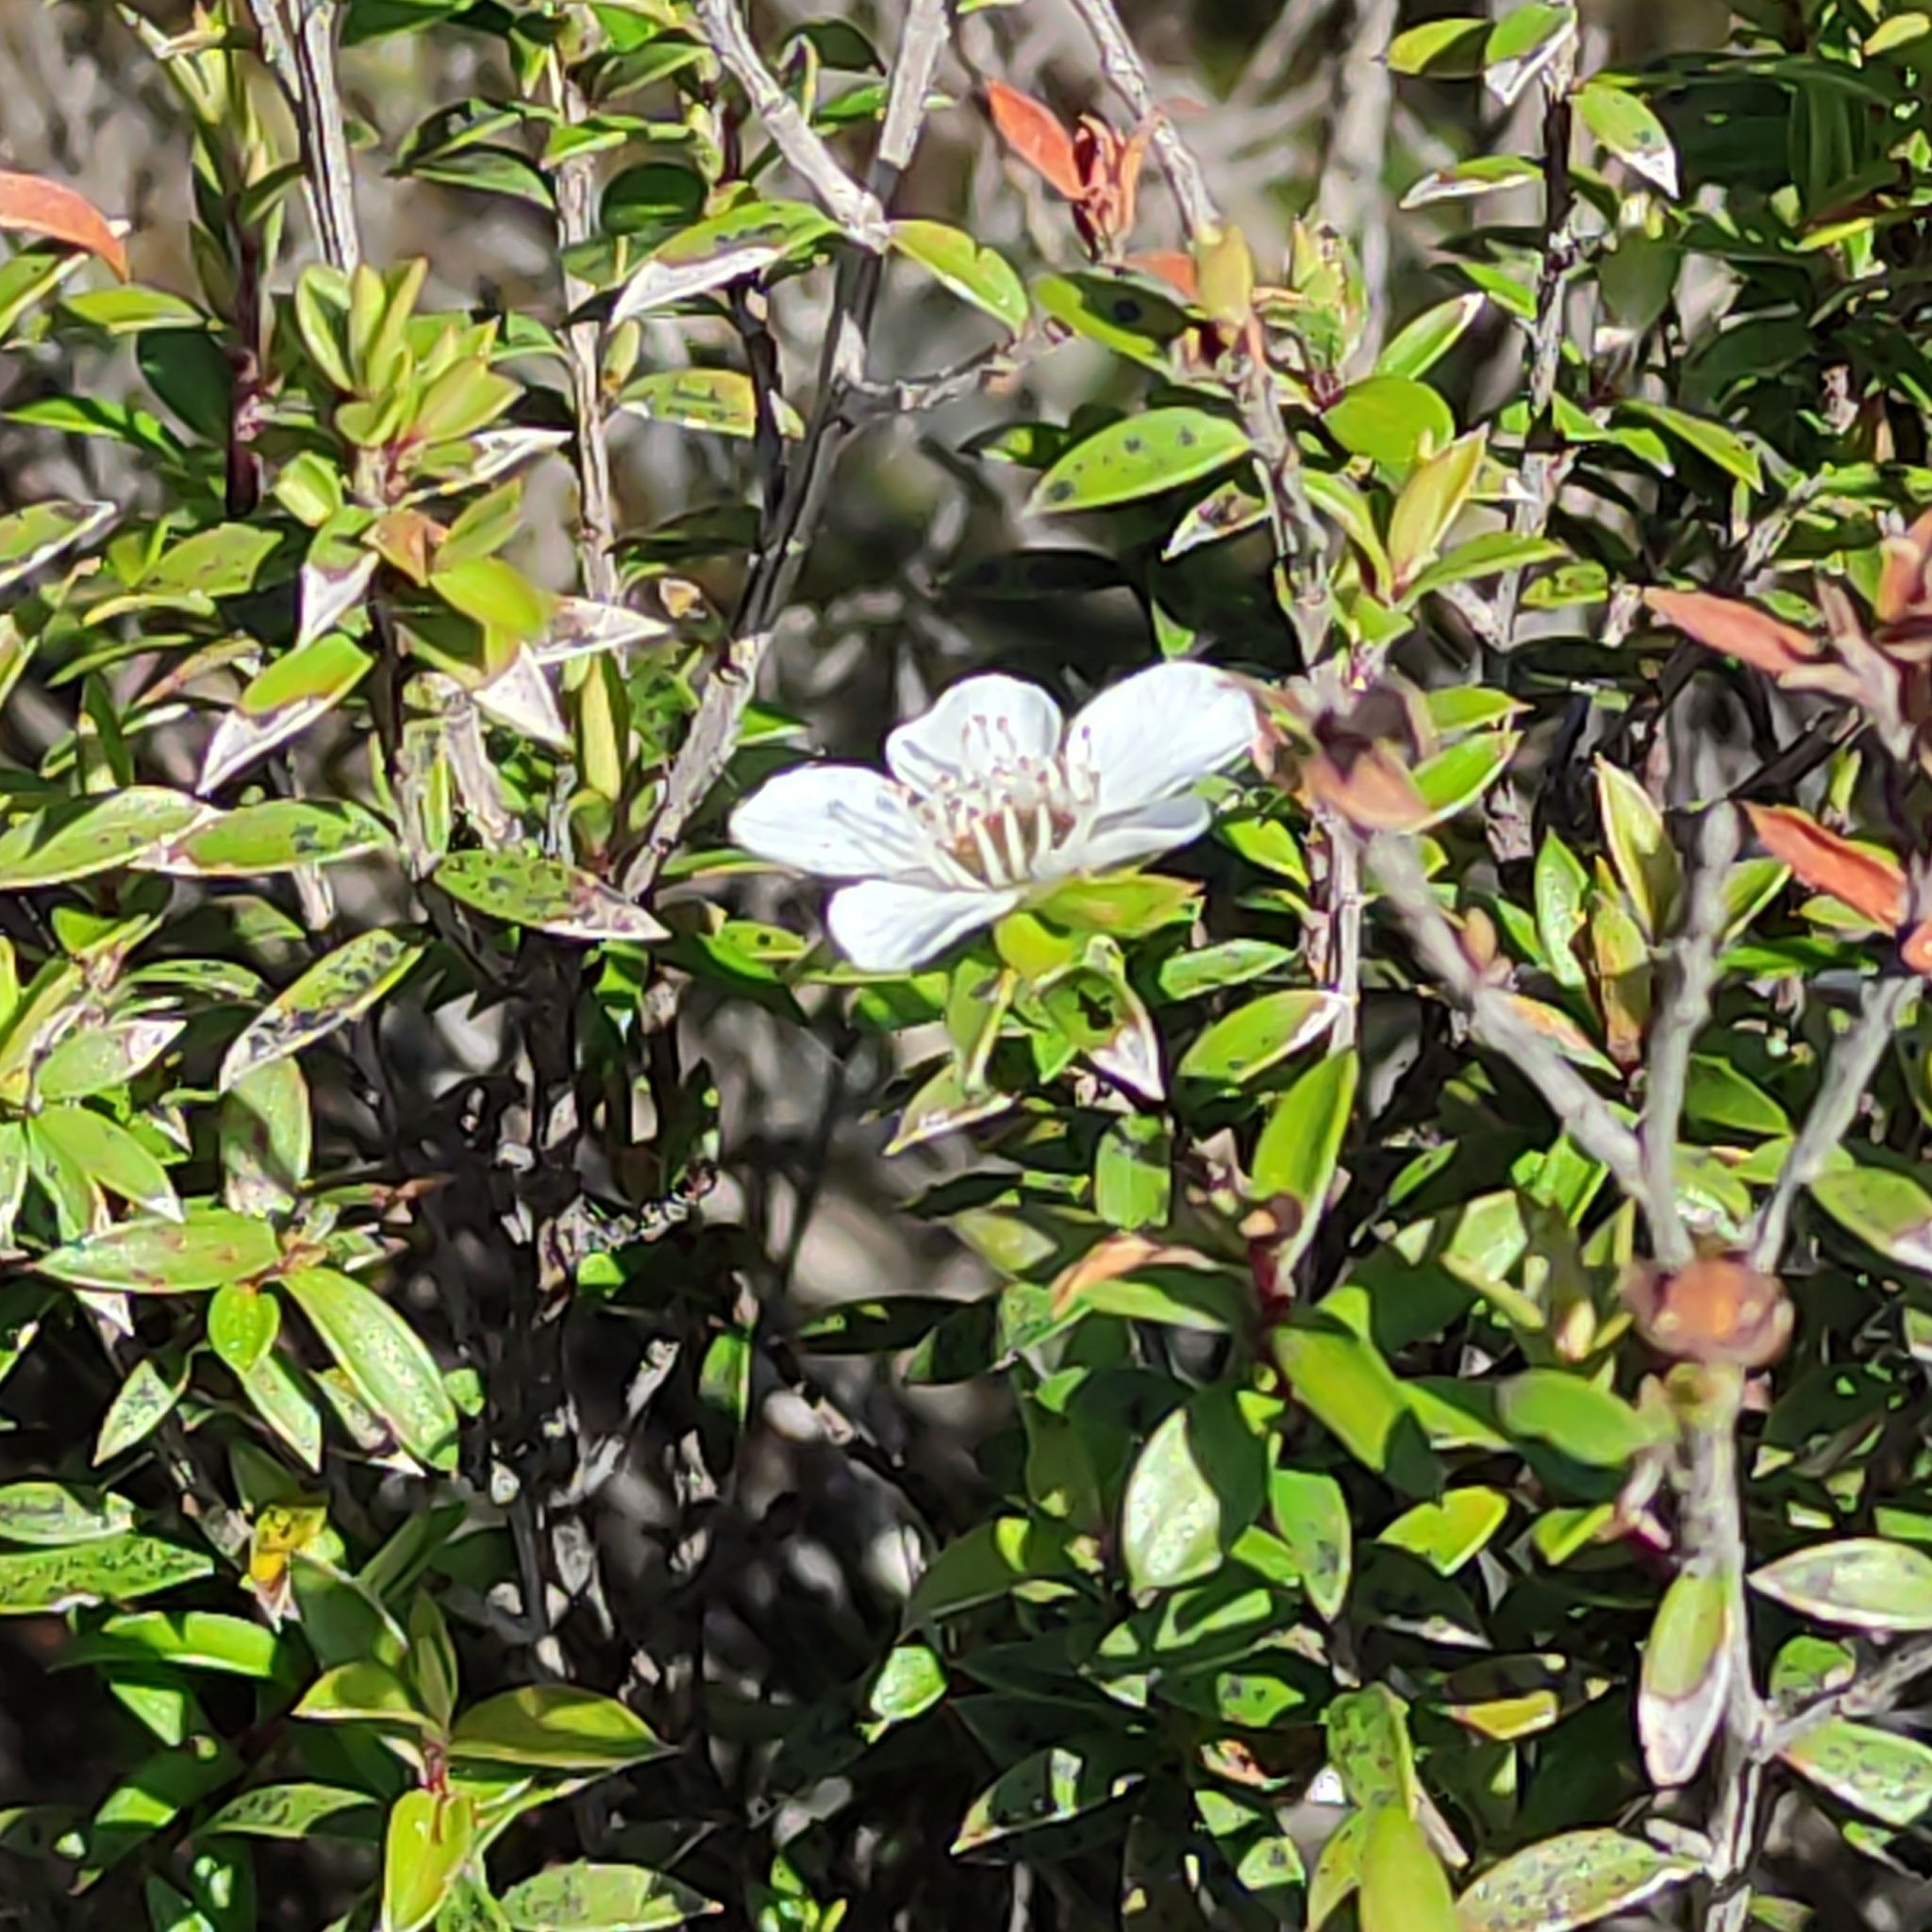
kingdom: Plantae
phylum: Tracheophyta
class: Magnoliopsida
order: Myrtales
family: Myrtaceae
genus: Leptospermum
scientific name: Leptospermum scoparium
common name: Broom tea-tree
